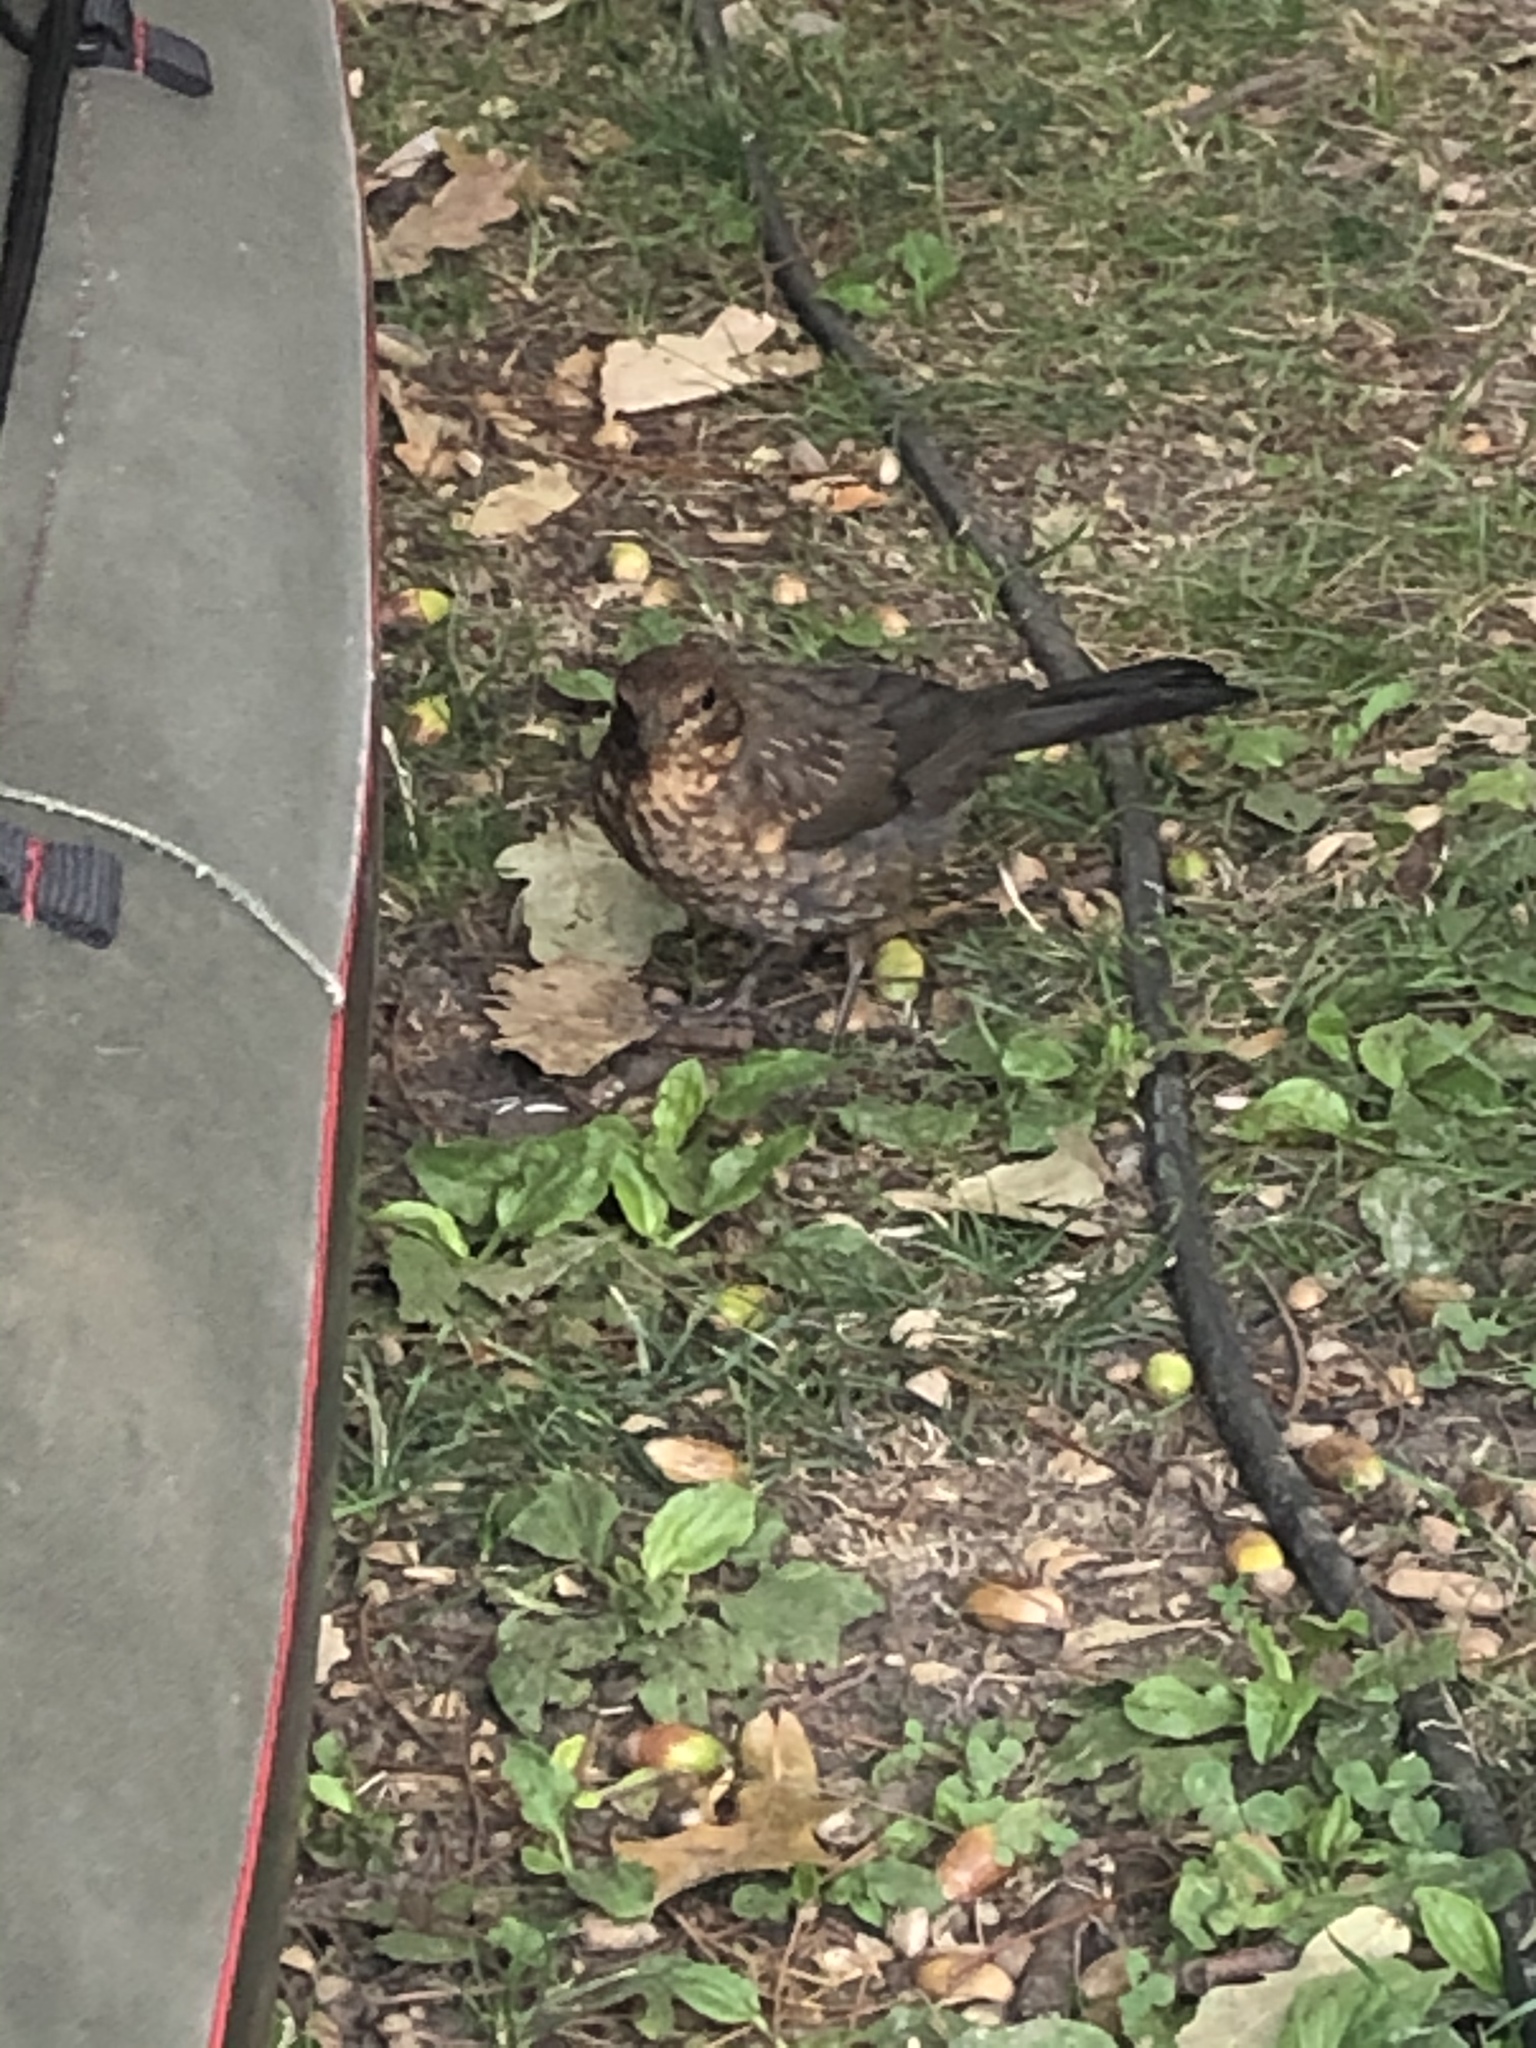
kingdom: Animalia
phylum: Chordata
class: Aves
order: Passeriformes
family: Turdidae
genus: Turdus
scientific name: Turdus merula
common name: Common blackbird
